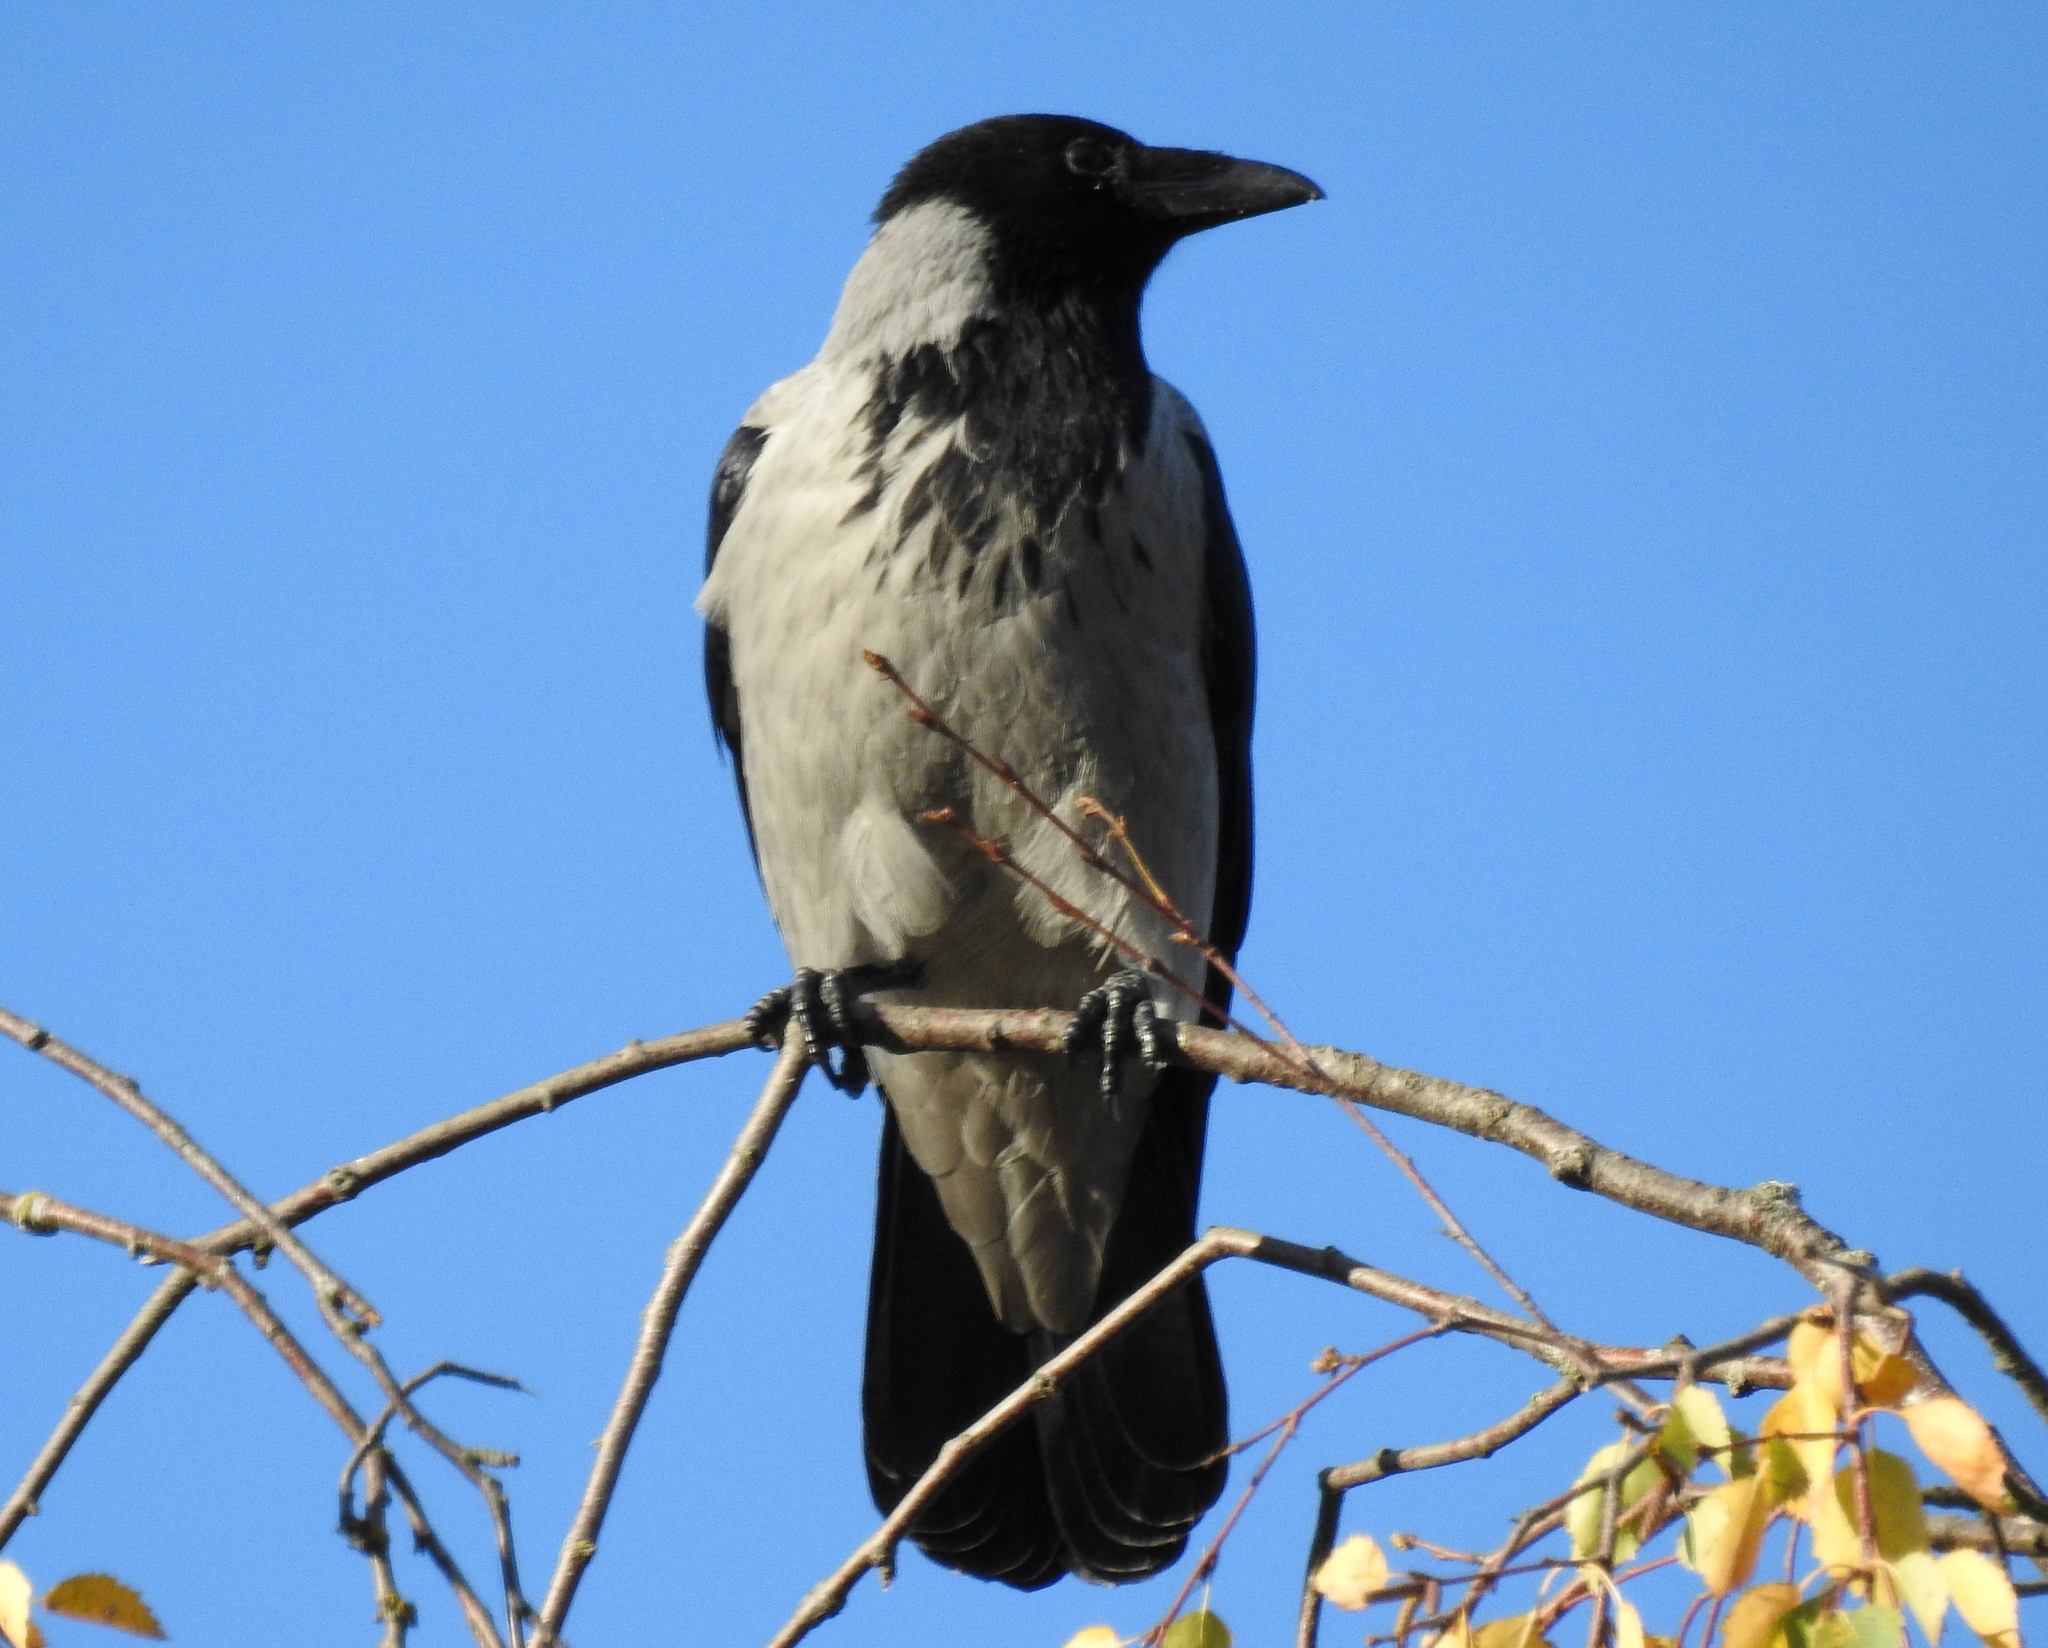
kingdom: Animalia
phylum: Chordata
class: Aves
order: Passeriformes
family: Corvidae
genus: Corvus
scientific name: Corvus cornix
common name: Hooded crow
